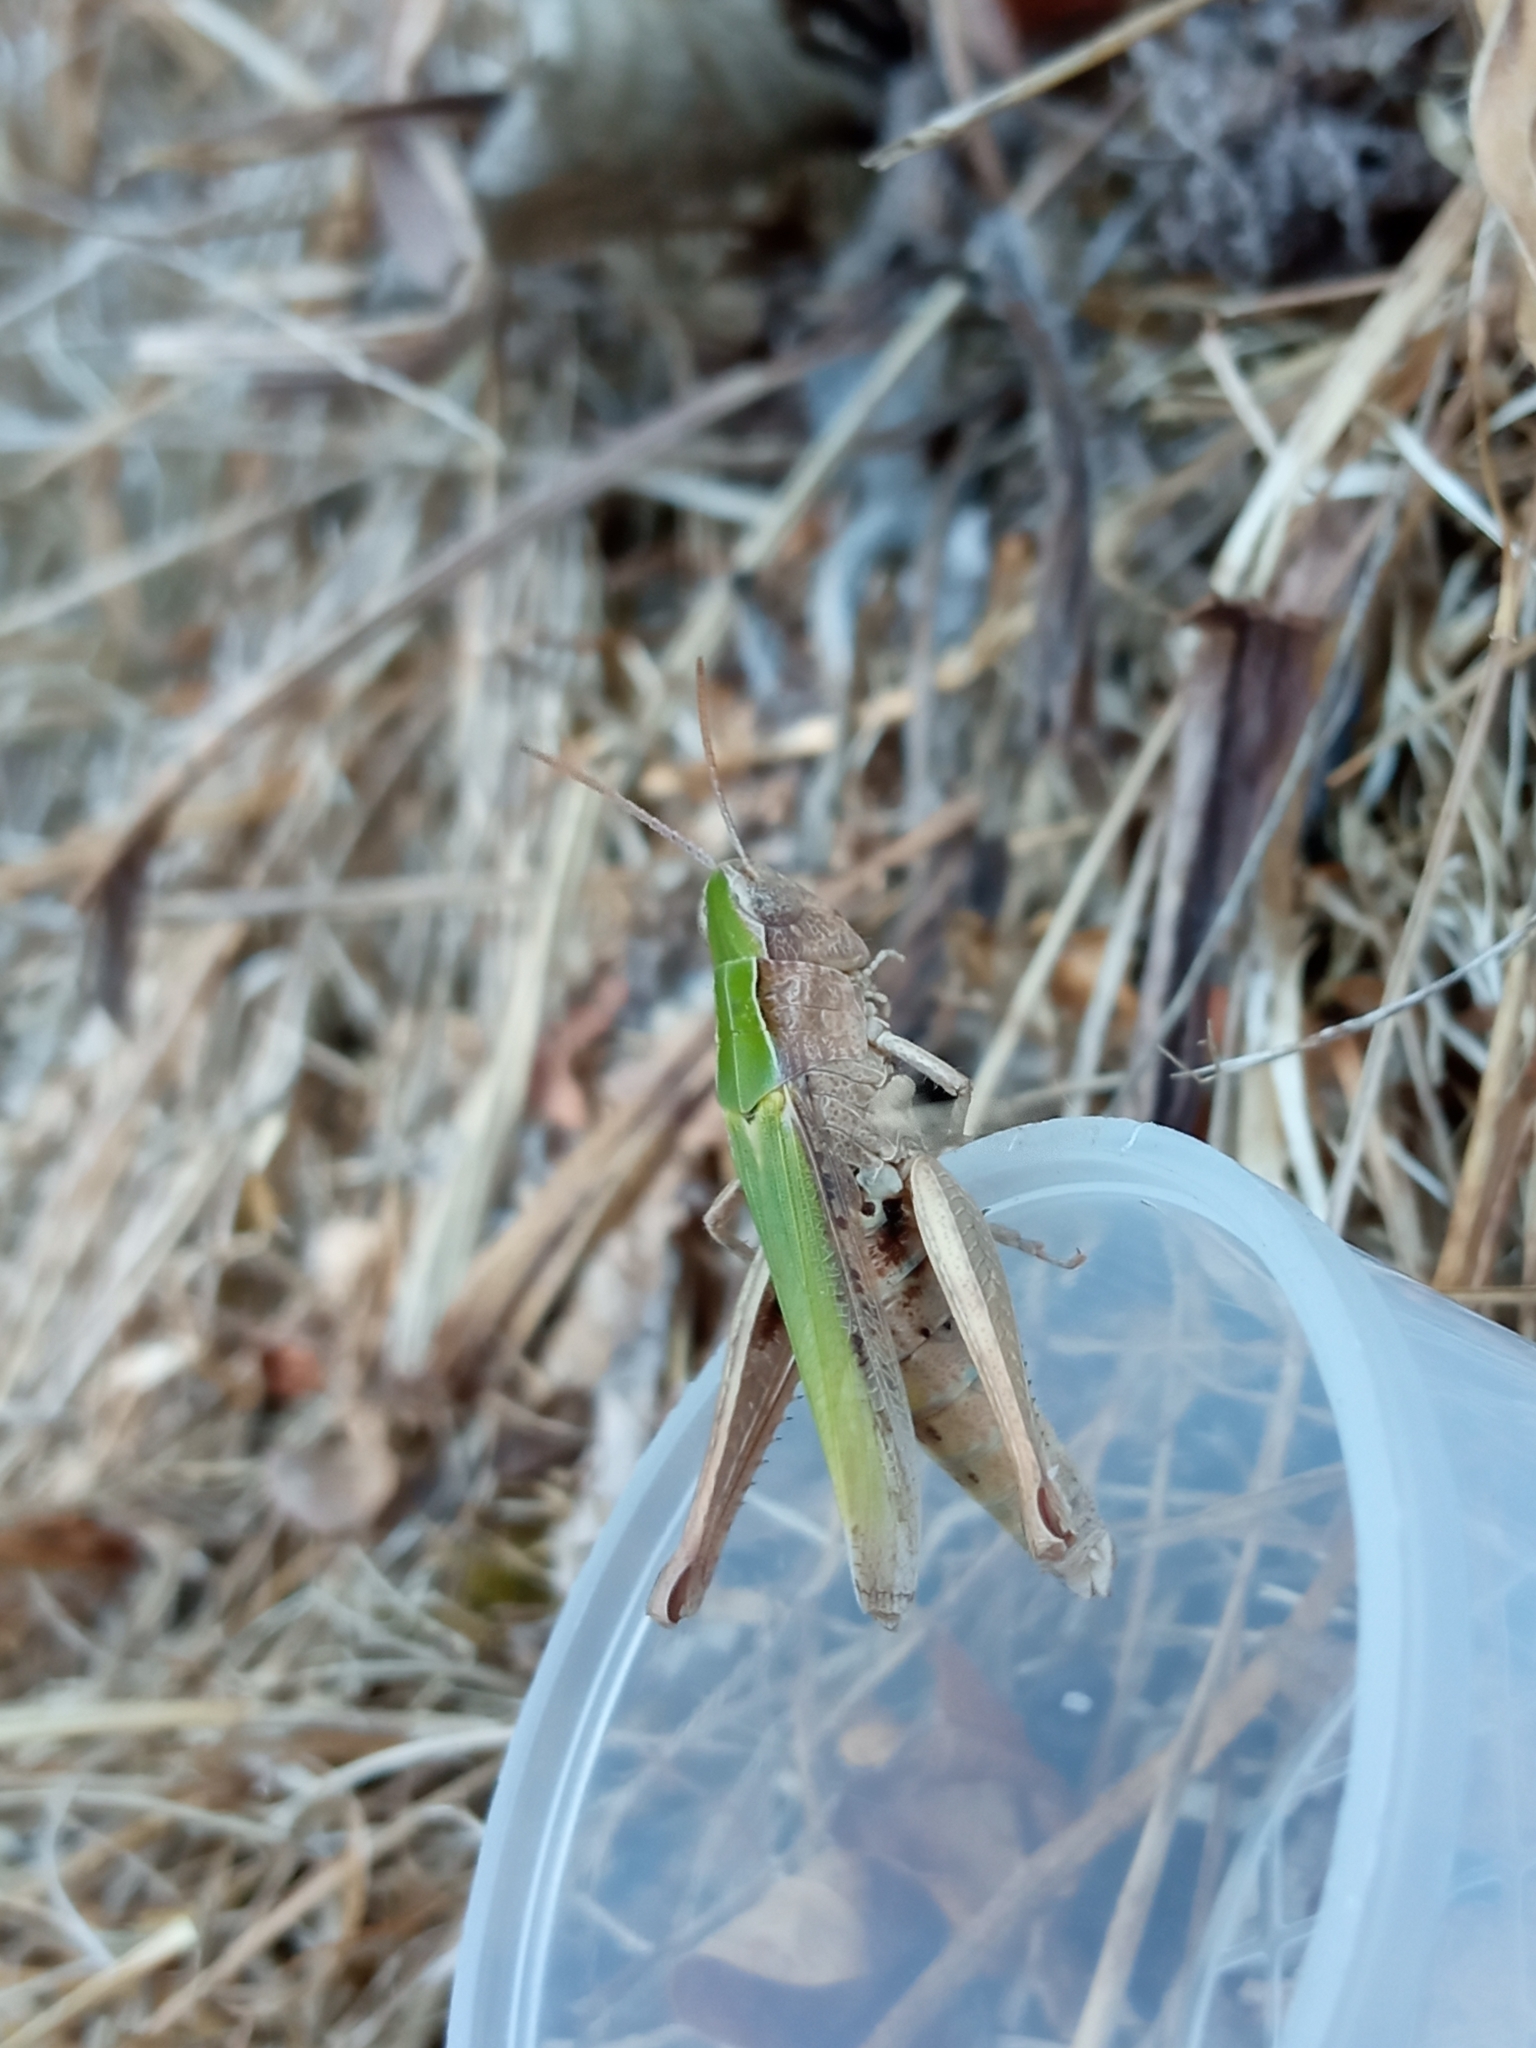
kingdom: Animalia
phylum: Arthropoda
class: Insecta
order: Orthoptera
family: Acrididae
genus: Chorthippus
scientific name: Chorthippus dorsatus
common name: Steppe grasshopper
